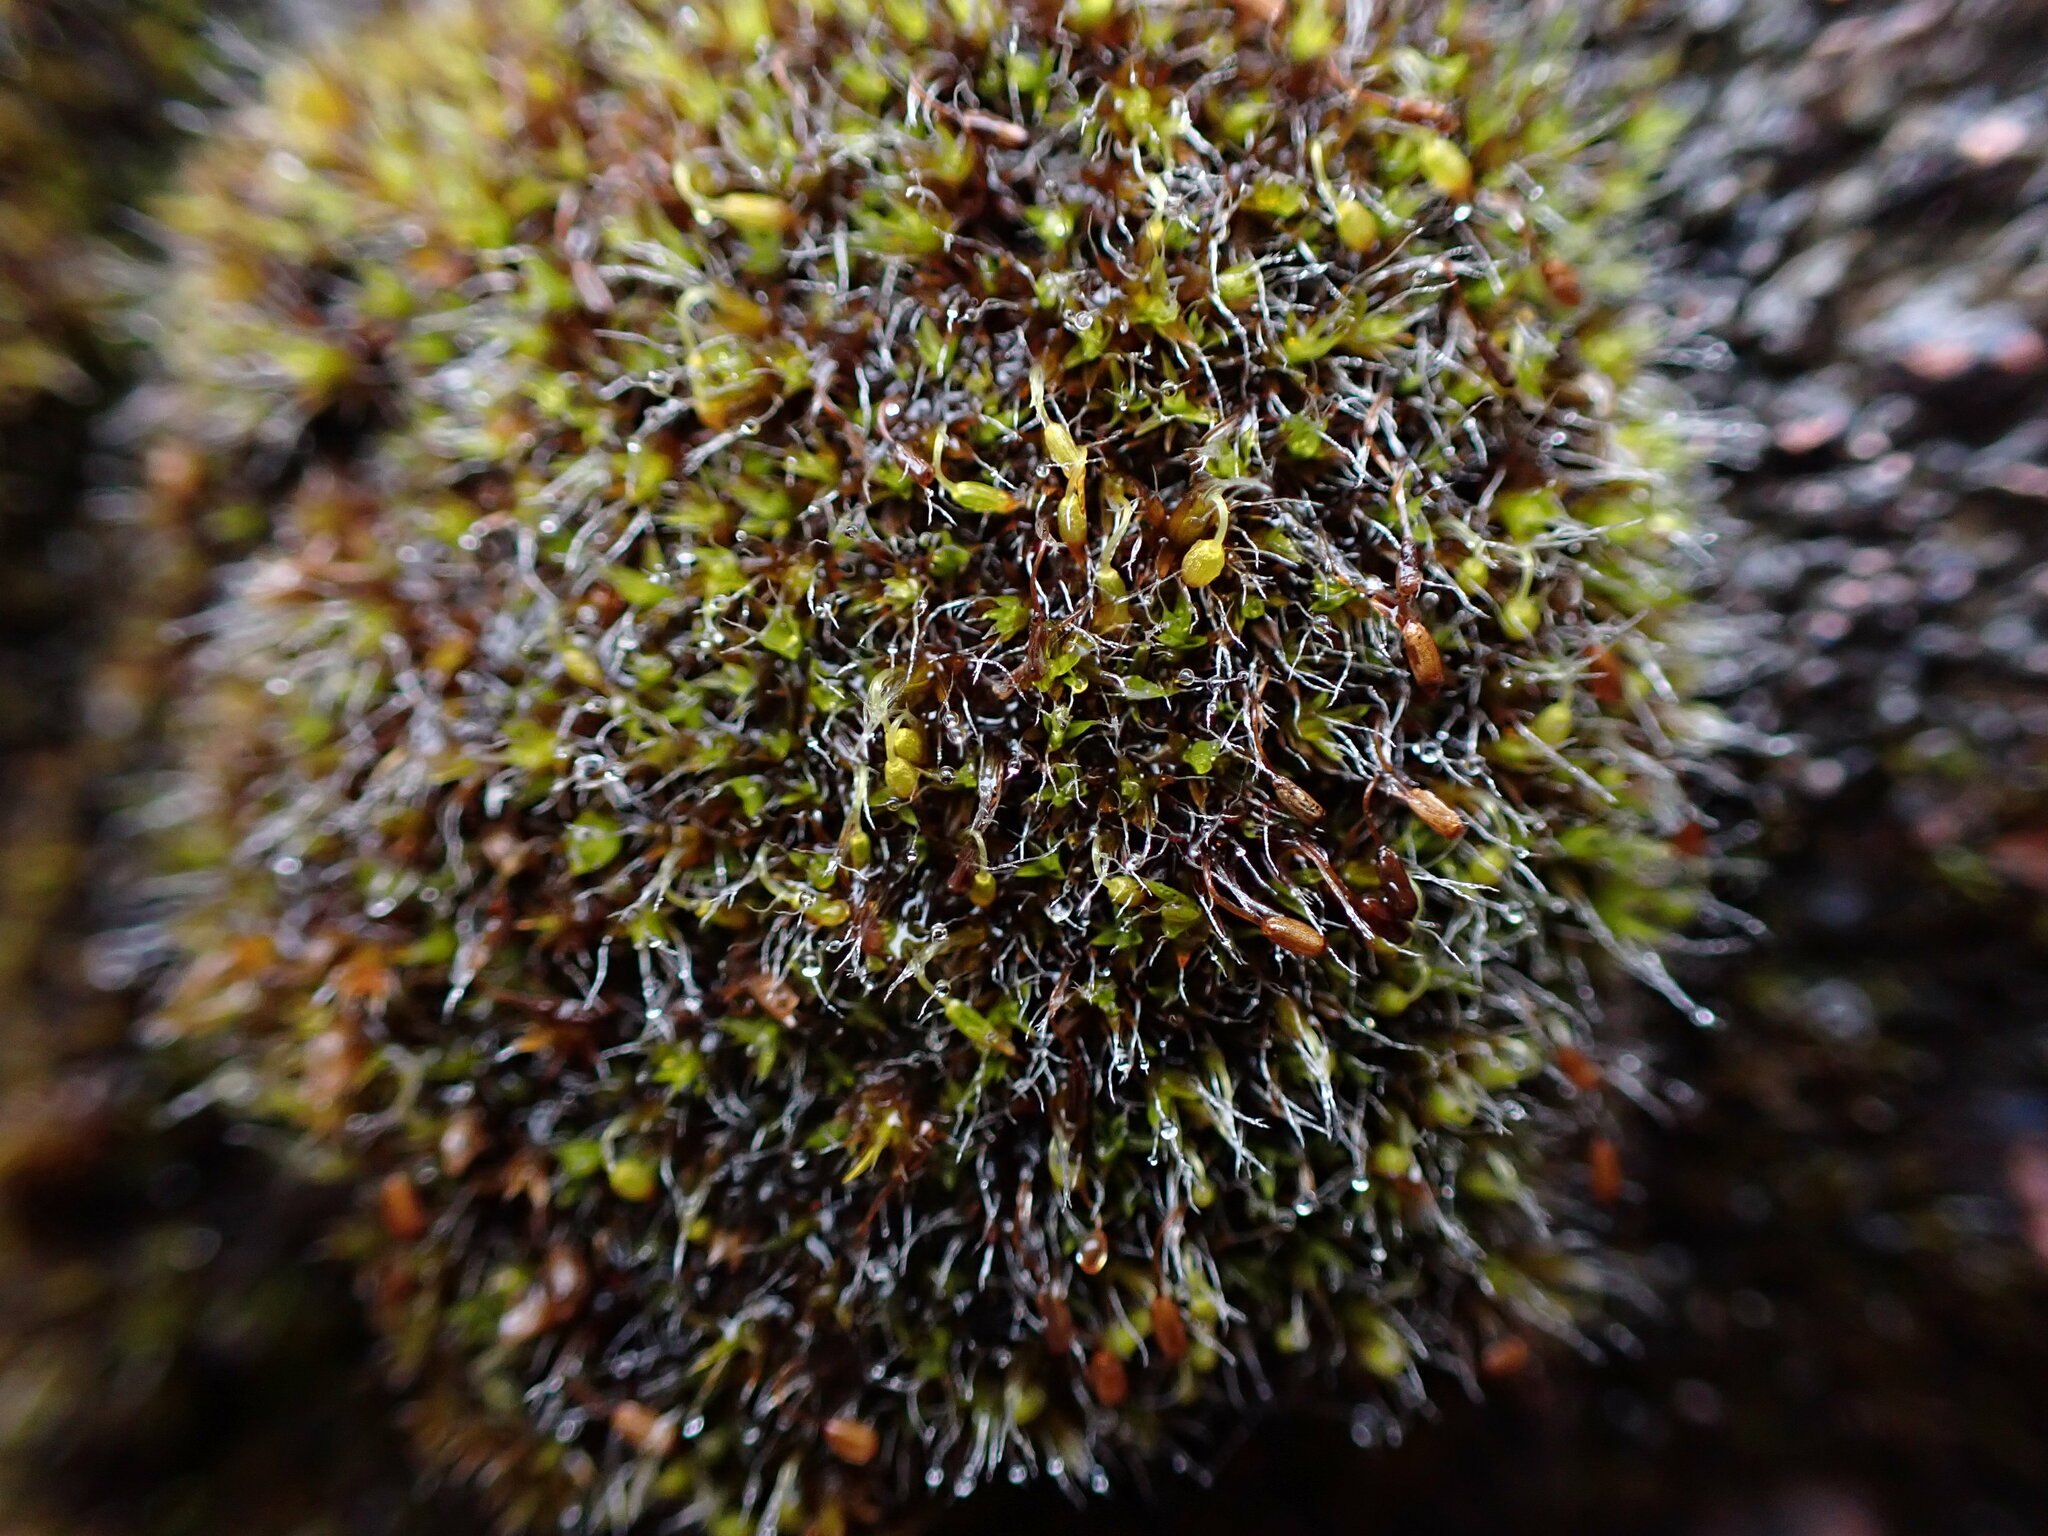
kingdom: Plantae
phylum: Bryophyta
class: Bryopsida
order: Grimmiales
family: Grimmiaceae
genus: Grimmia
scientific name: Grimmia pulvinata
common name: Grey-cushioned grimmia
